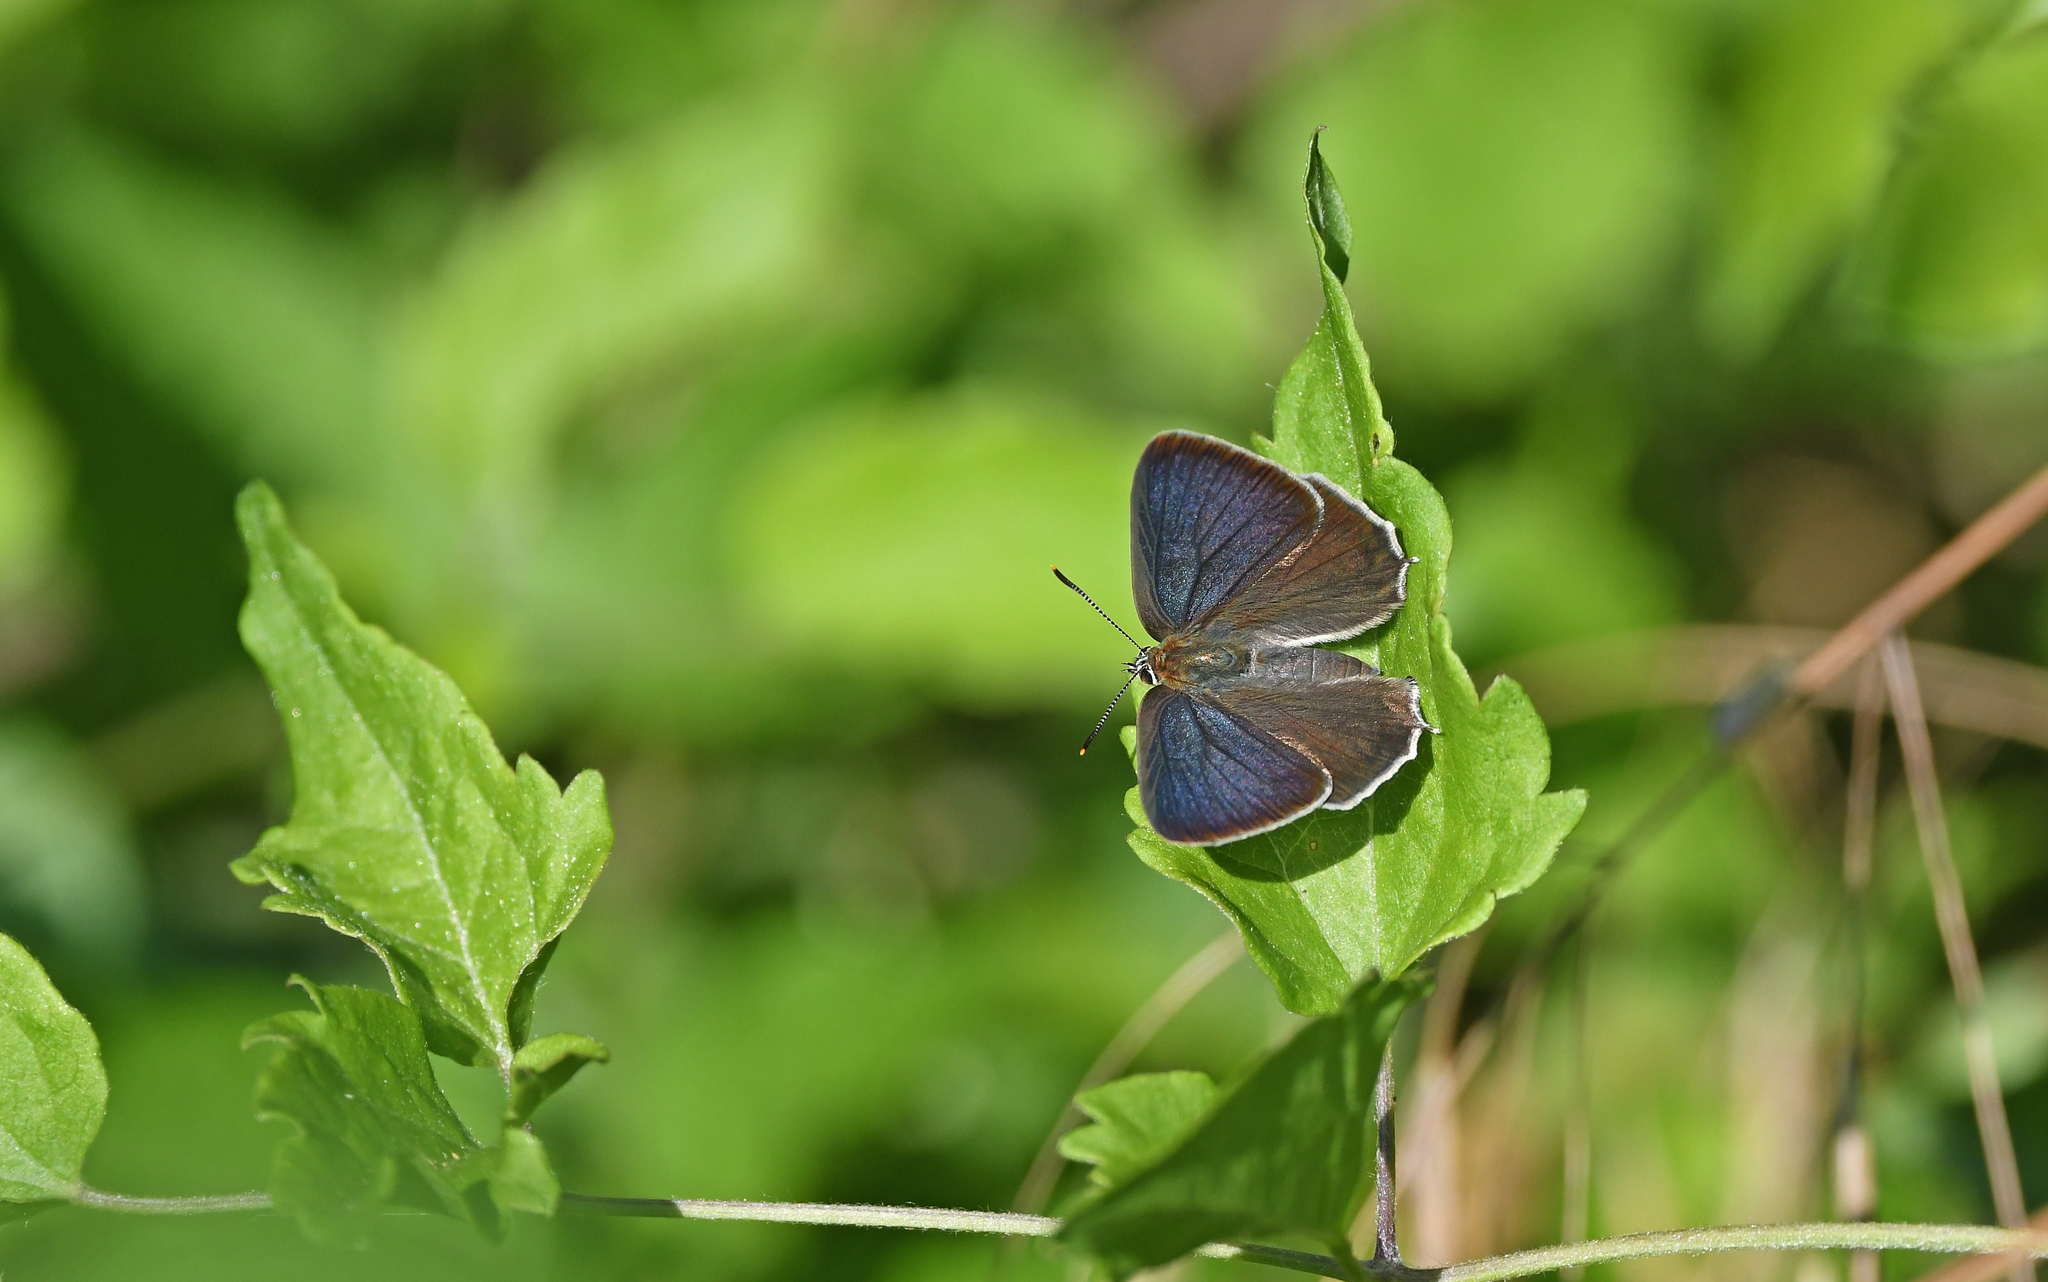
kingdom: Animalia
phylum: Arthropoda
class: Insecta
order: Lepidoptera
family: Lycaenidae
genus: Quercusia
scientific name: Quercusia quercus
